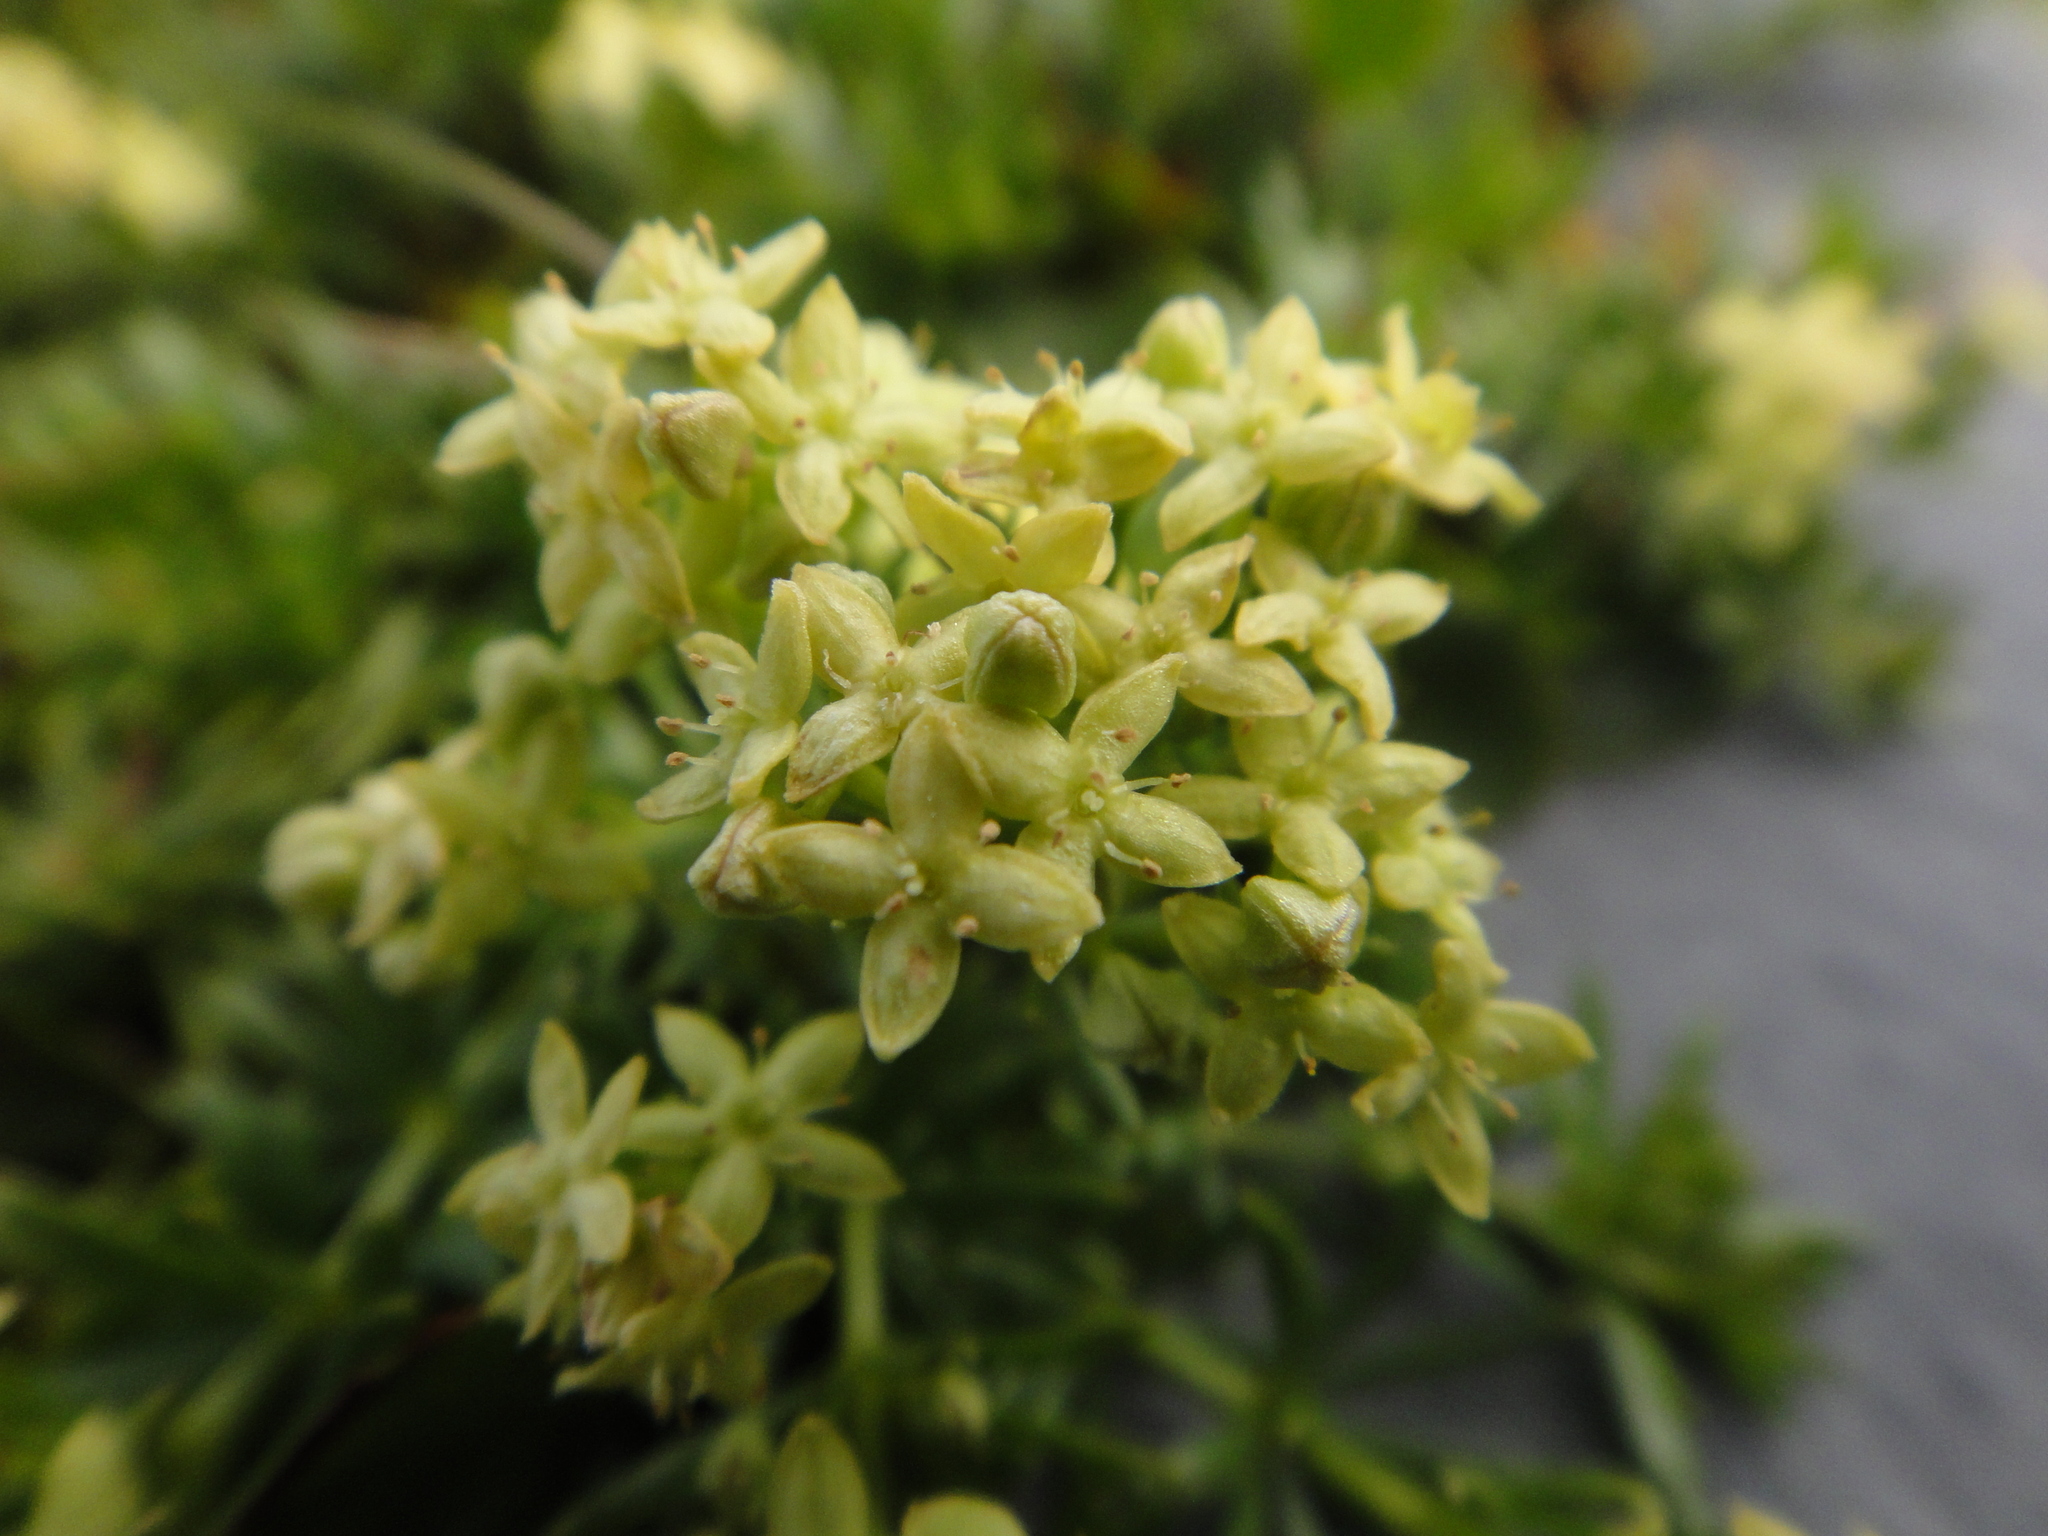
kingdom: Plantae
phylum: Tracheophyta
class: Magnoliopsida
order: Gentianales
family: Rubiaceae
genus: Galium
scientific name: Galium noricum
